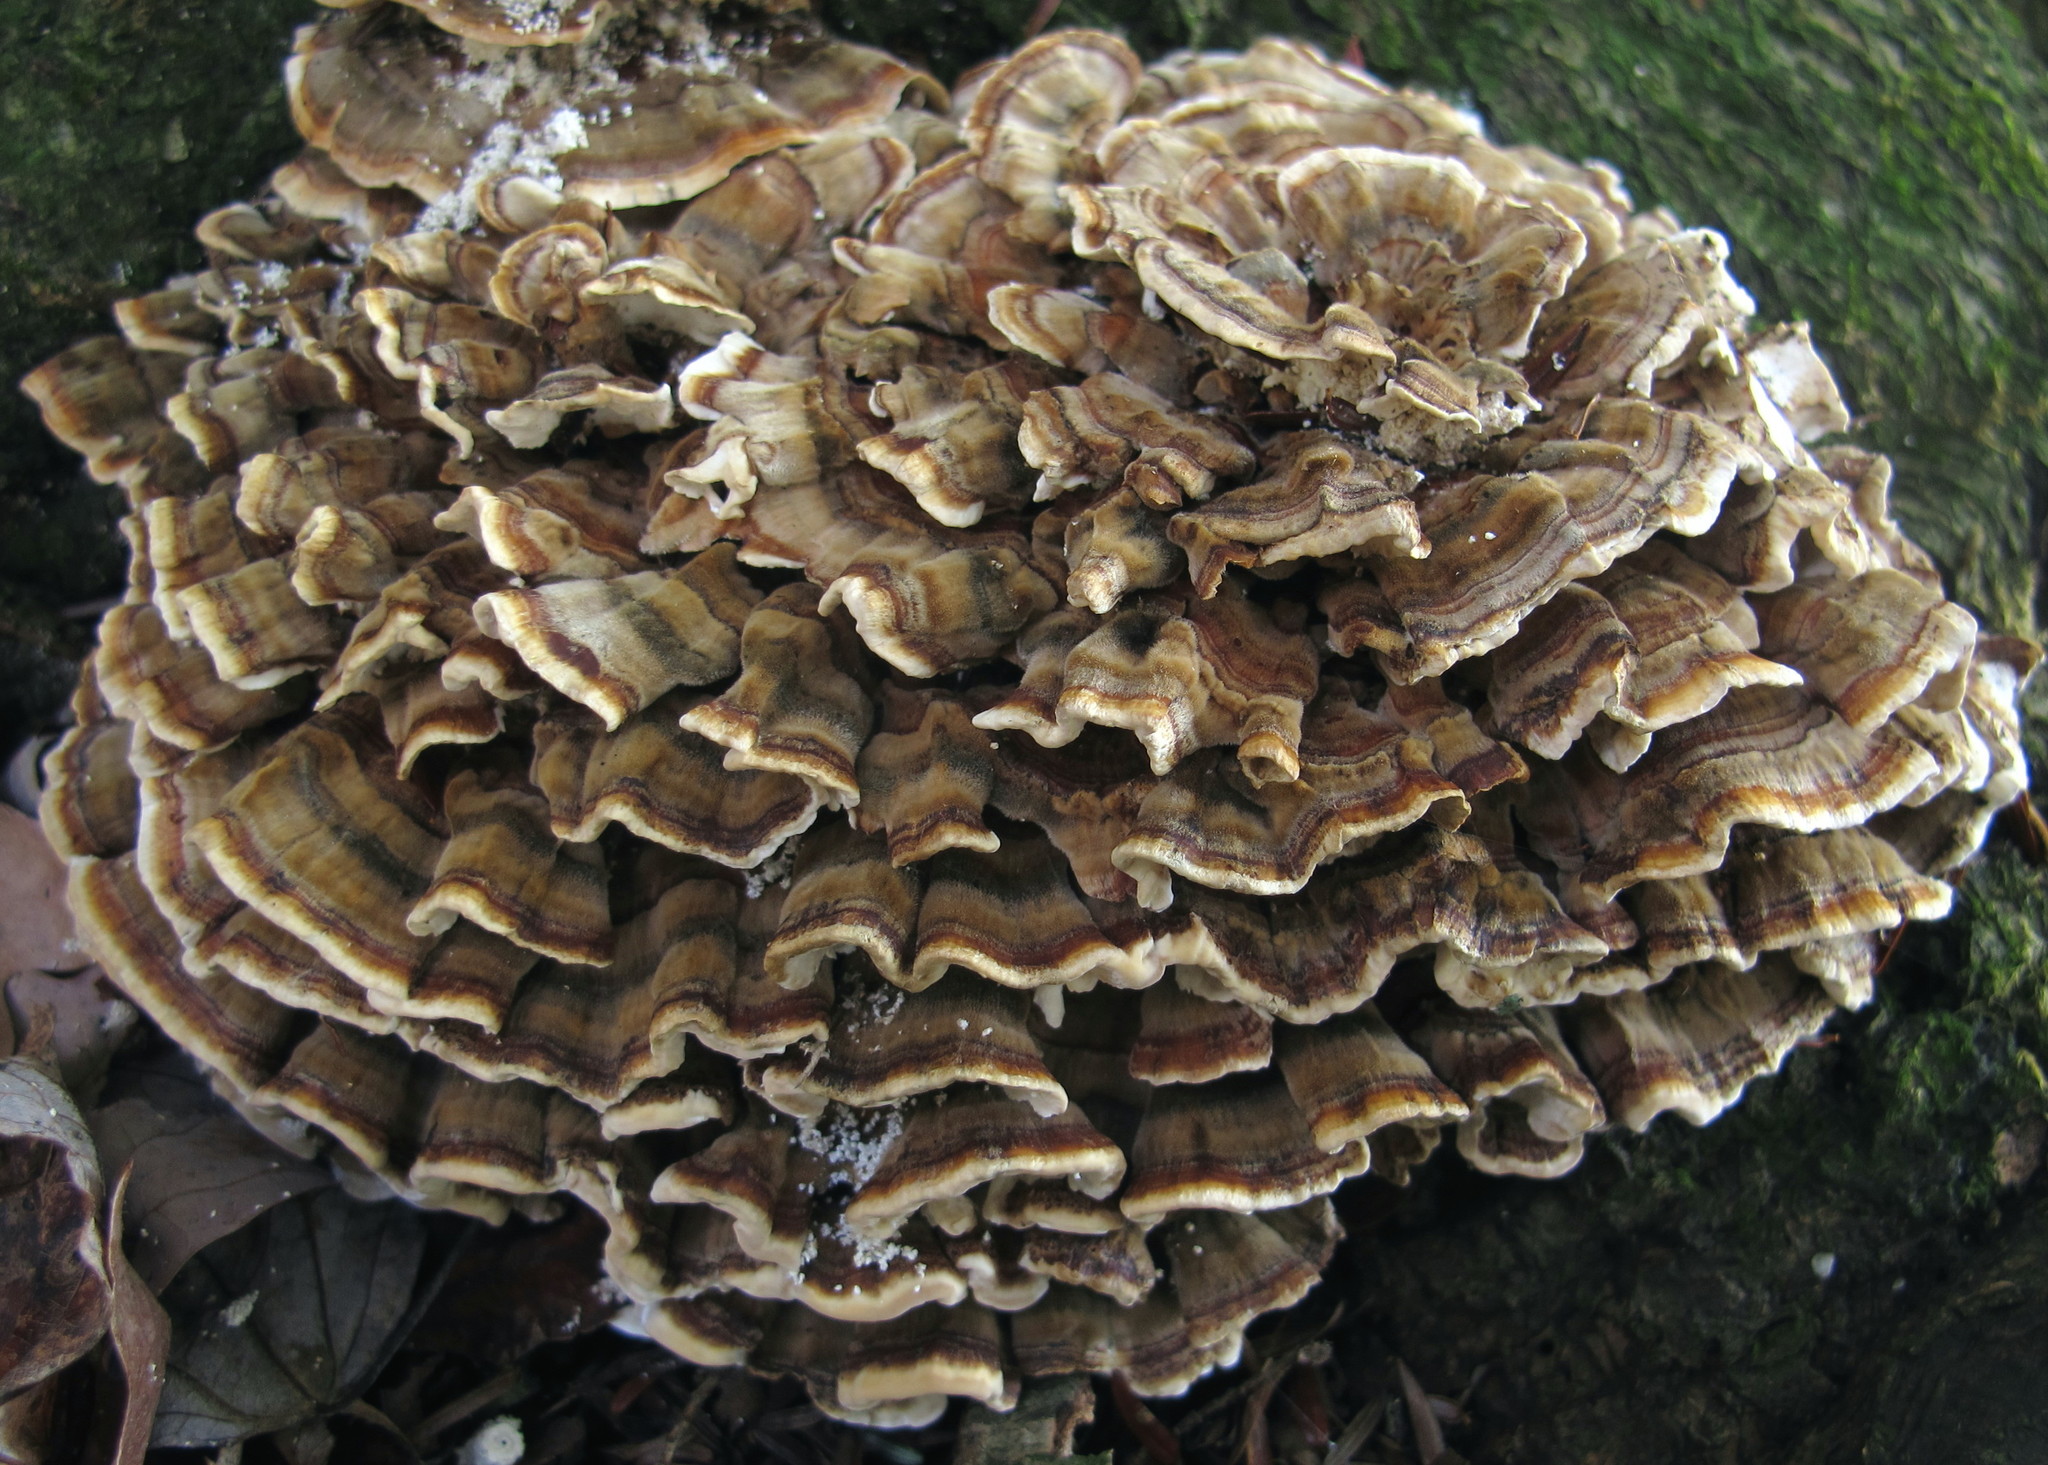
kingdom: Fungi
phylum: Basidiomycota
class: Agaricomycetes
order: Polyporales
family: Polyporaceae
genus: Trametes
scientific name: Trametes versicolor
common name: Turkeytail
